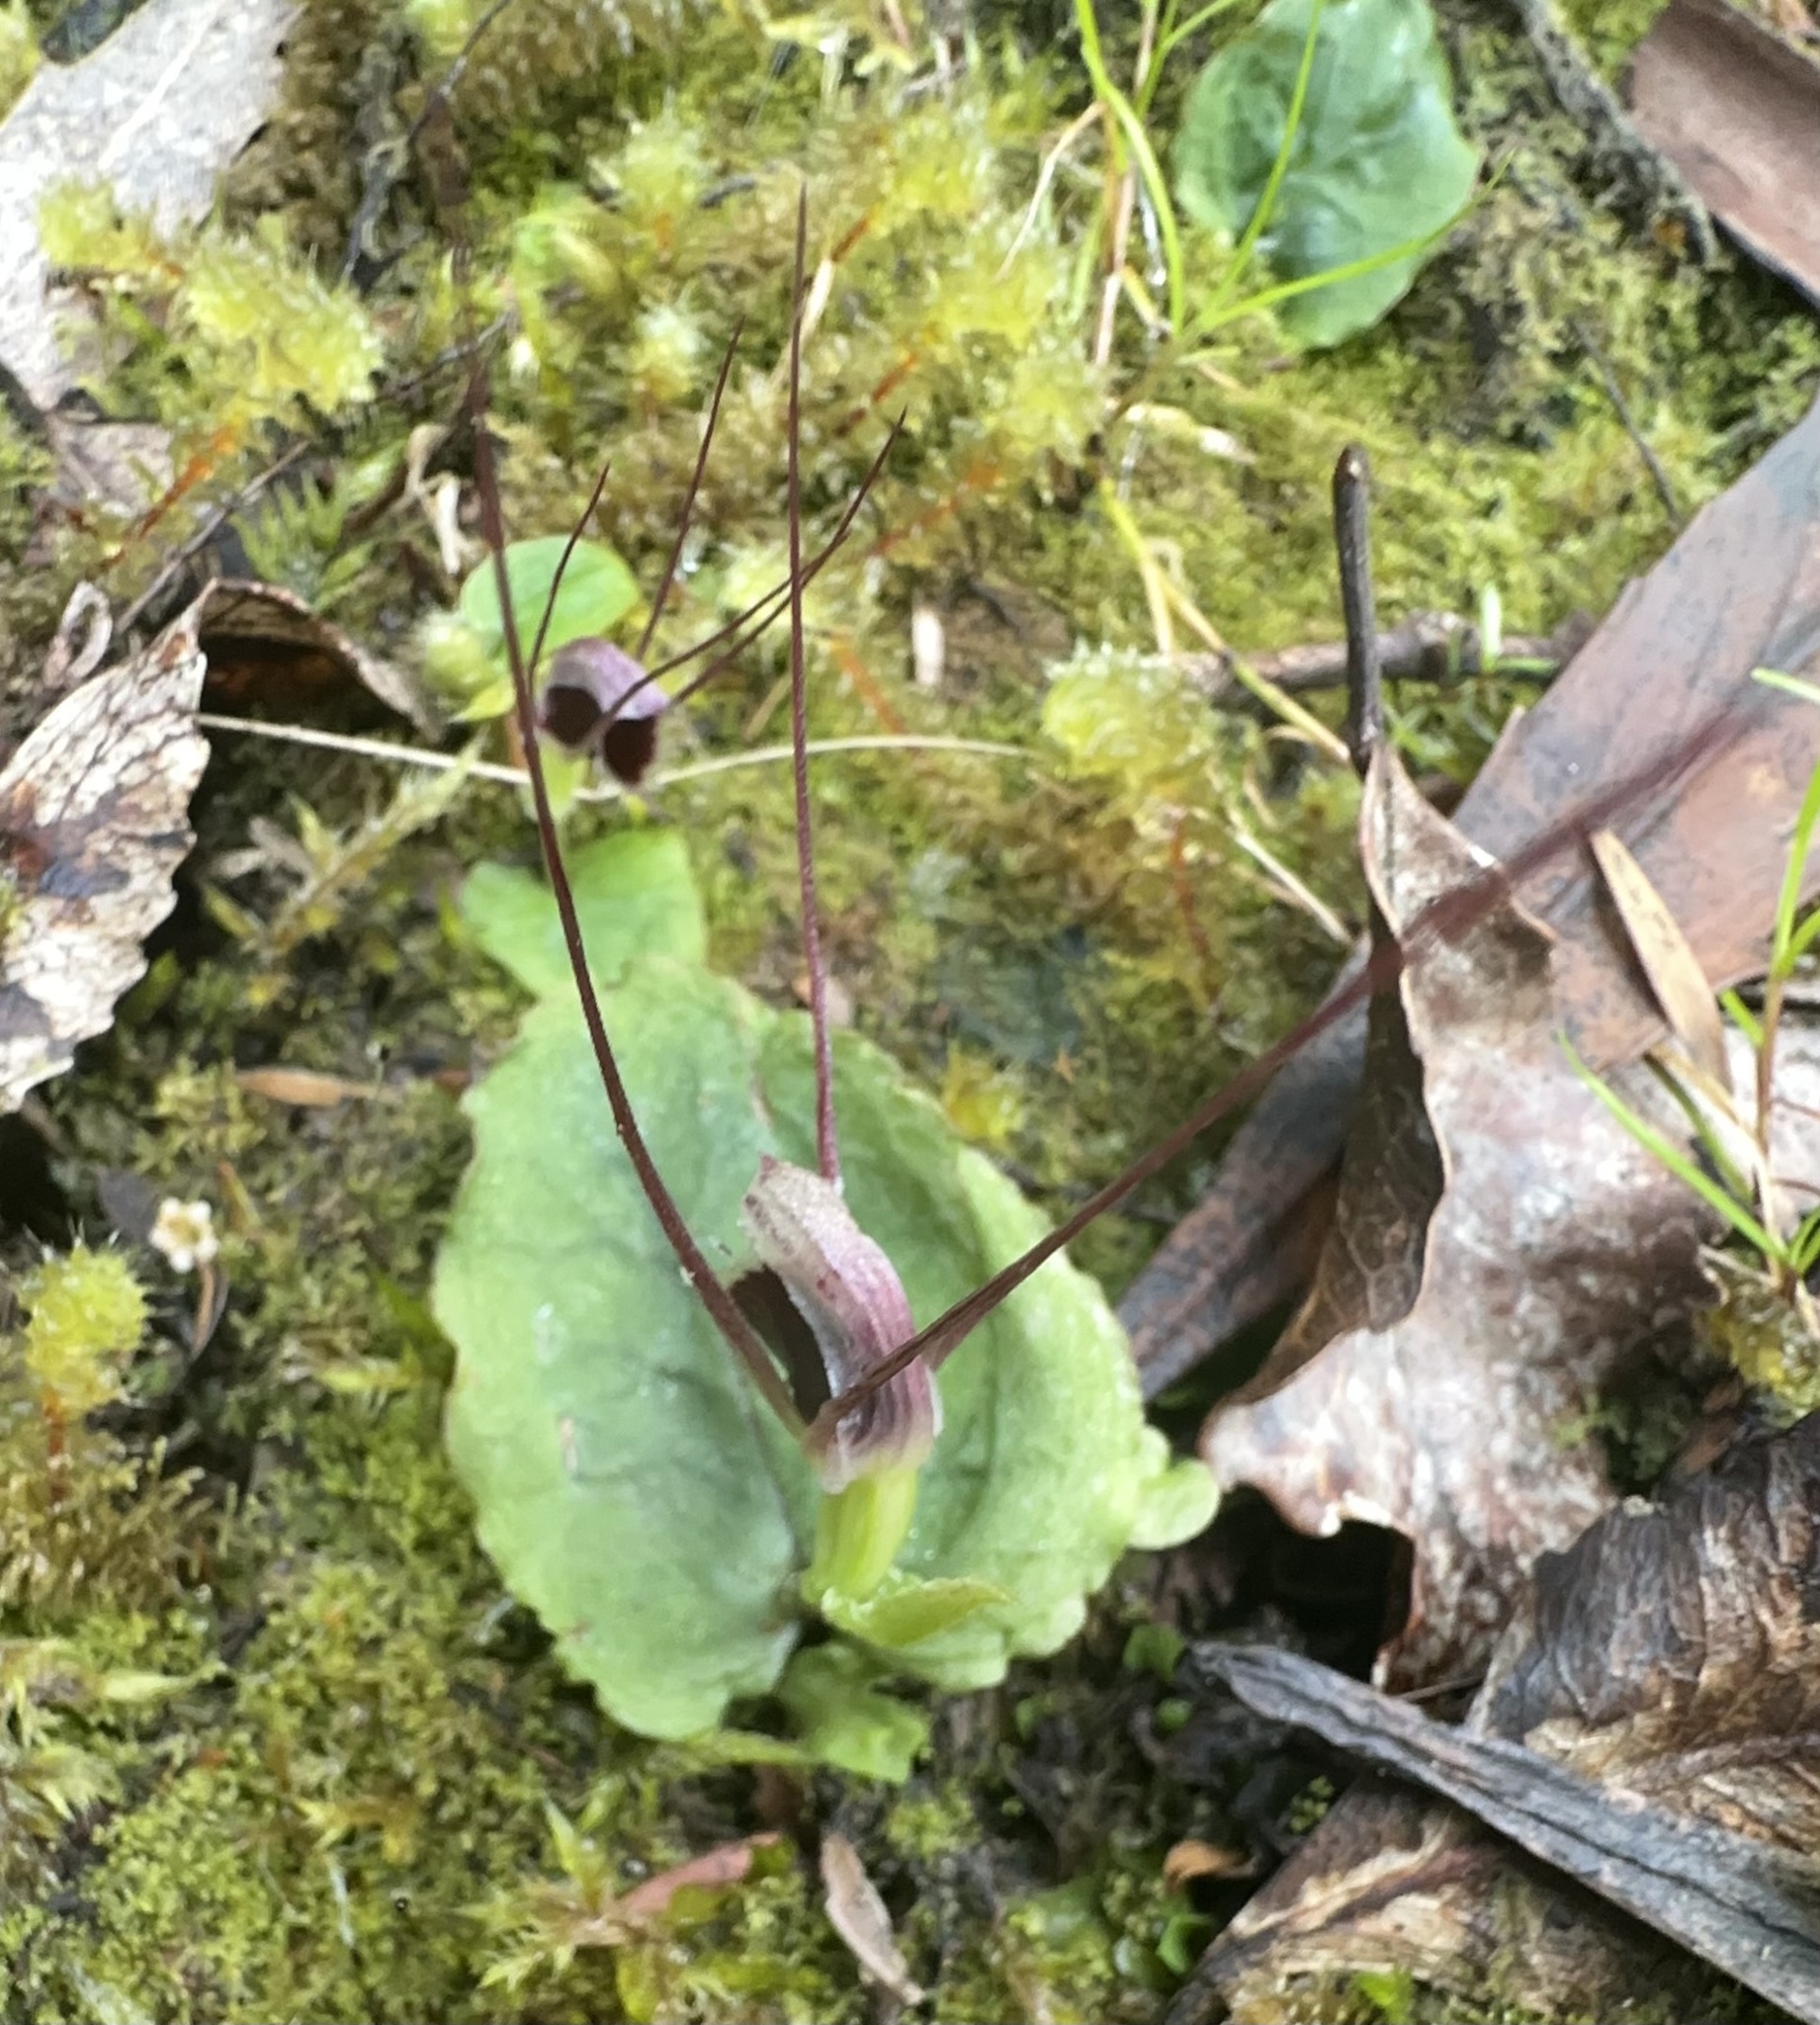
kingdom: Plantae
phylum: Tracheophyta
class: Liliopsida
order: Asparagales
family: Orchidaceae
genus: Corybas
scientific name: Corybas oblongus
